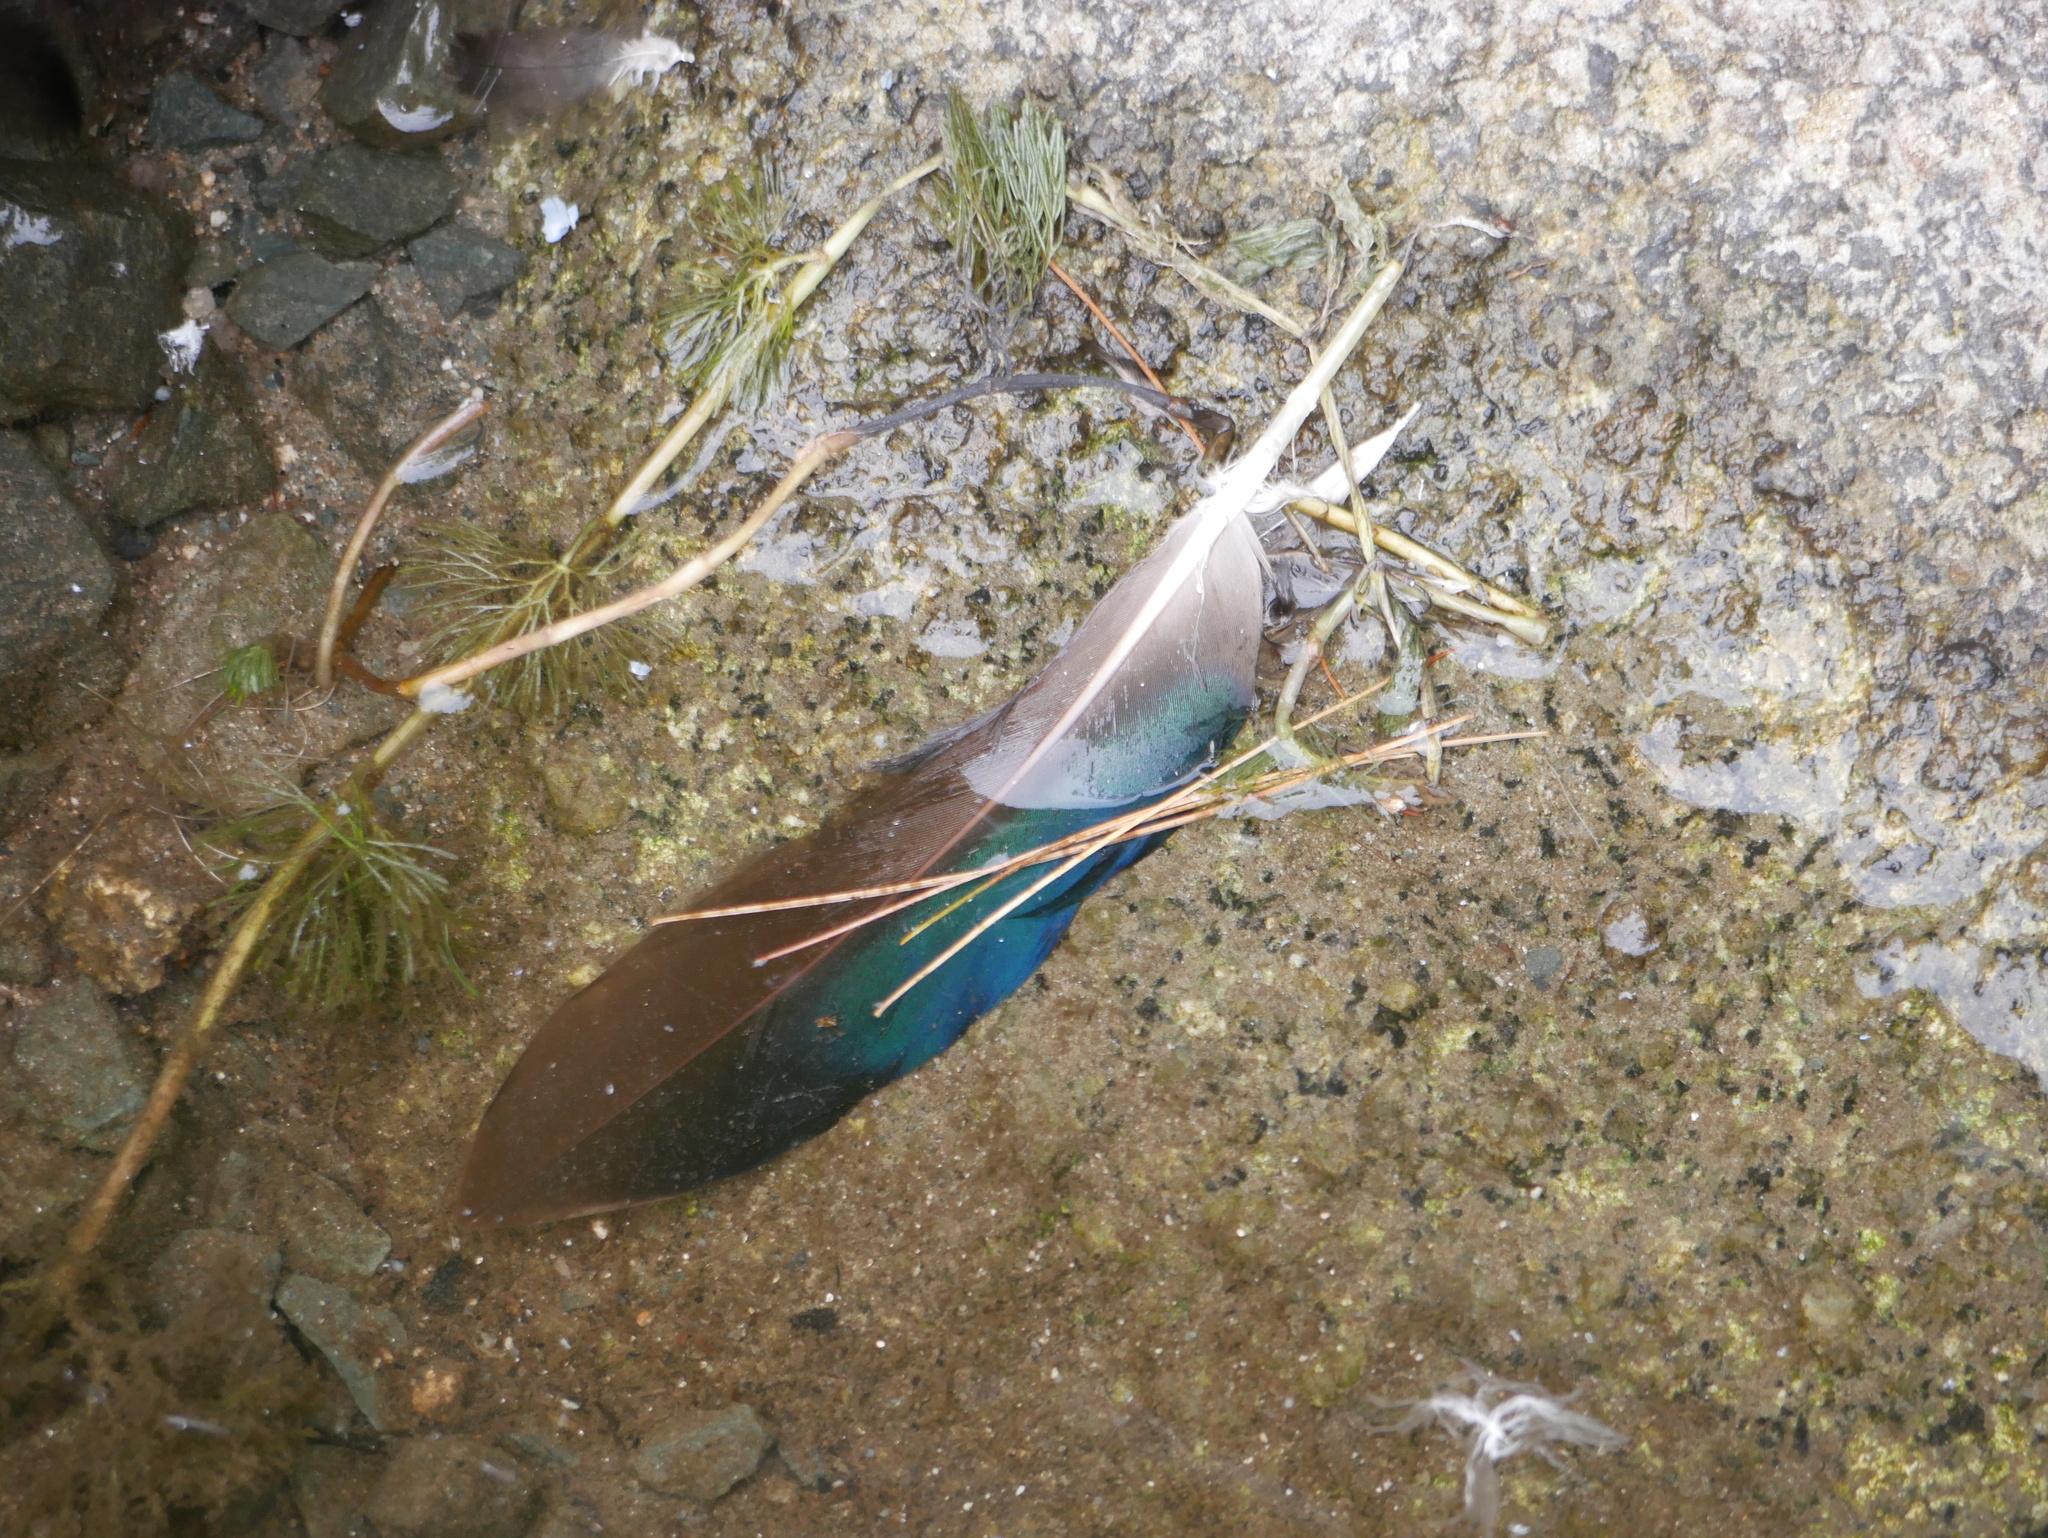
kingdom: Animalia
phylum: Chordata
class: Aves
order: Anseriformes
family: Anatidae
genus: Anas
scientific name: Anas rubripes
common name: American black duck
